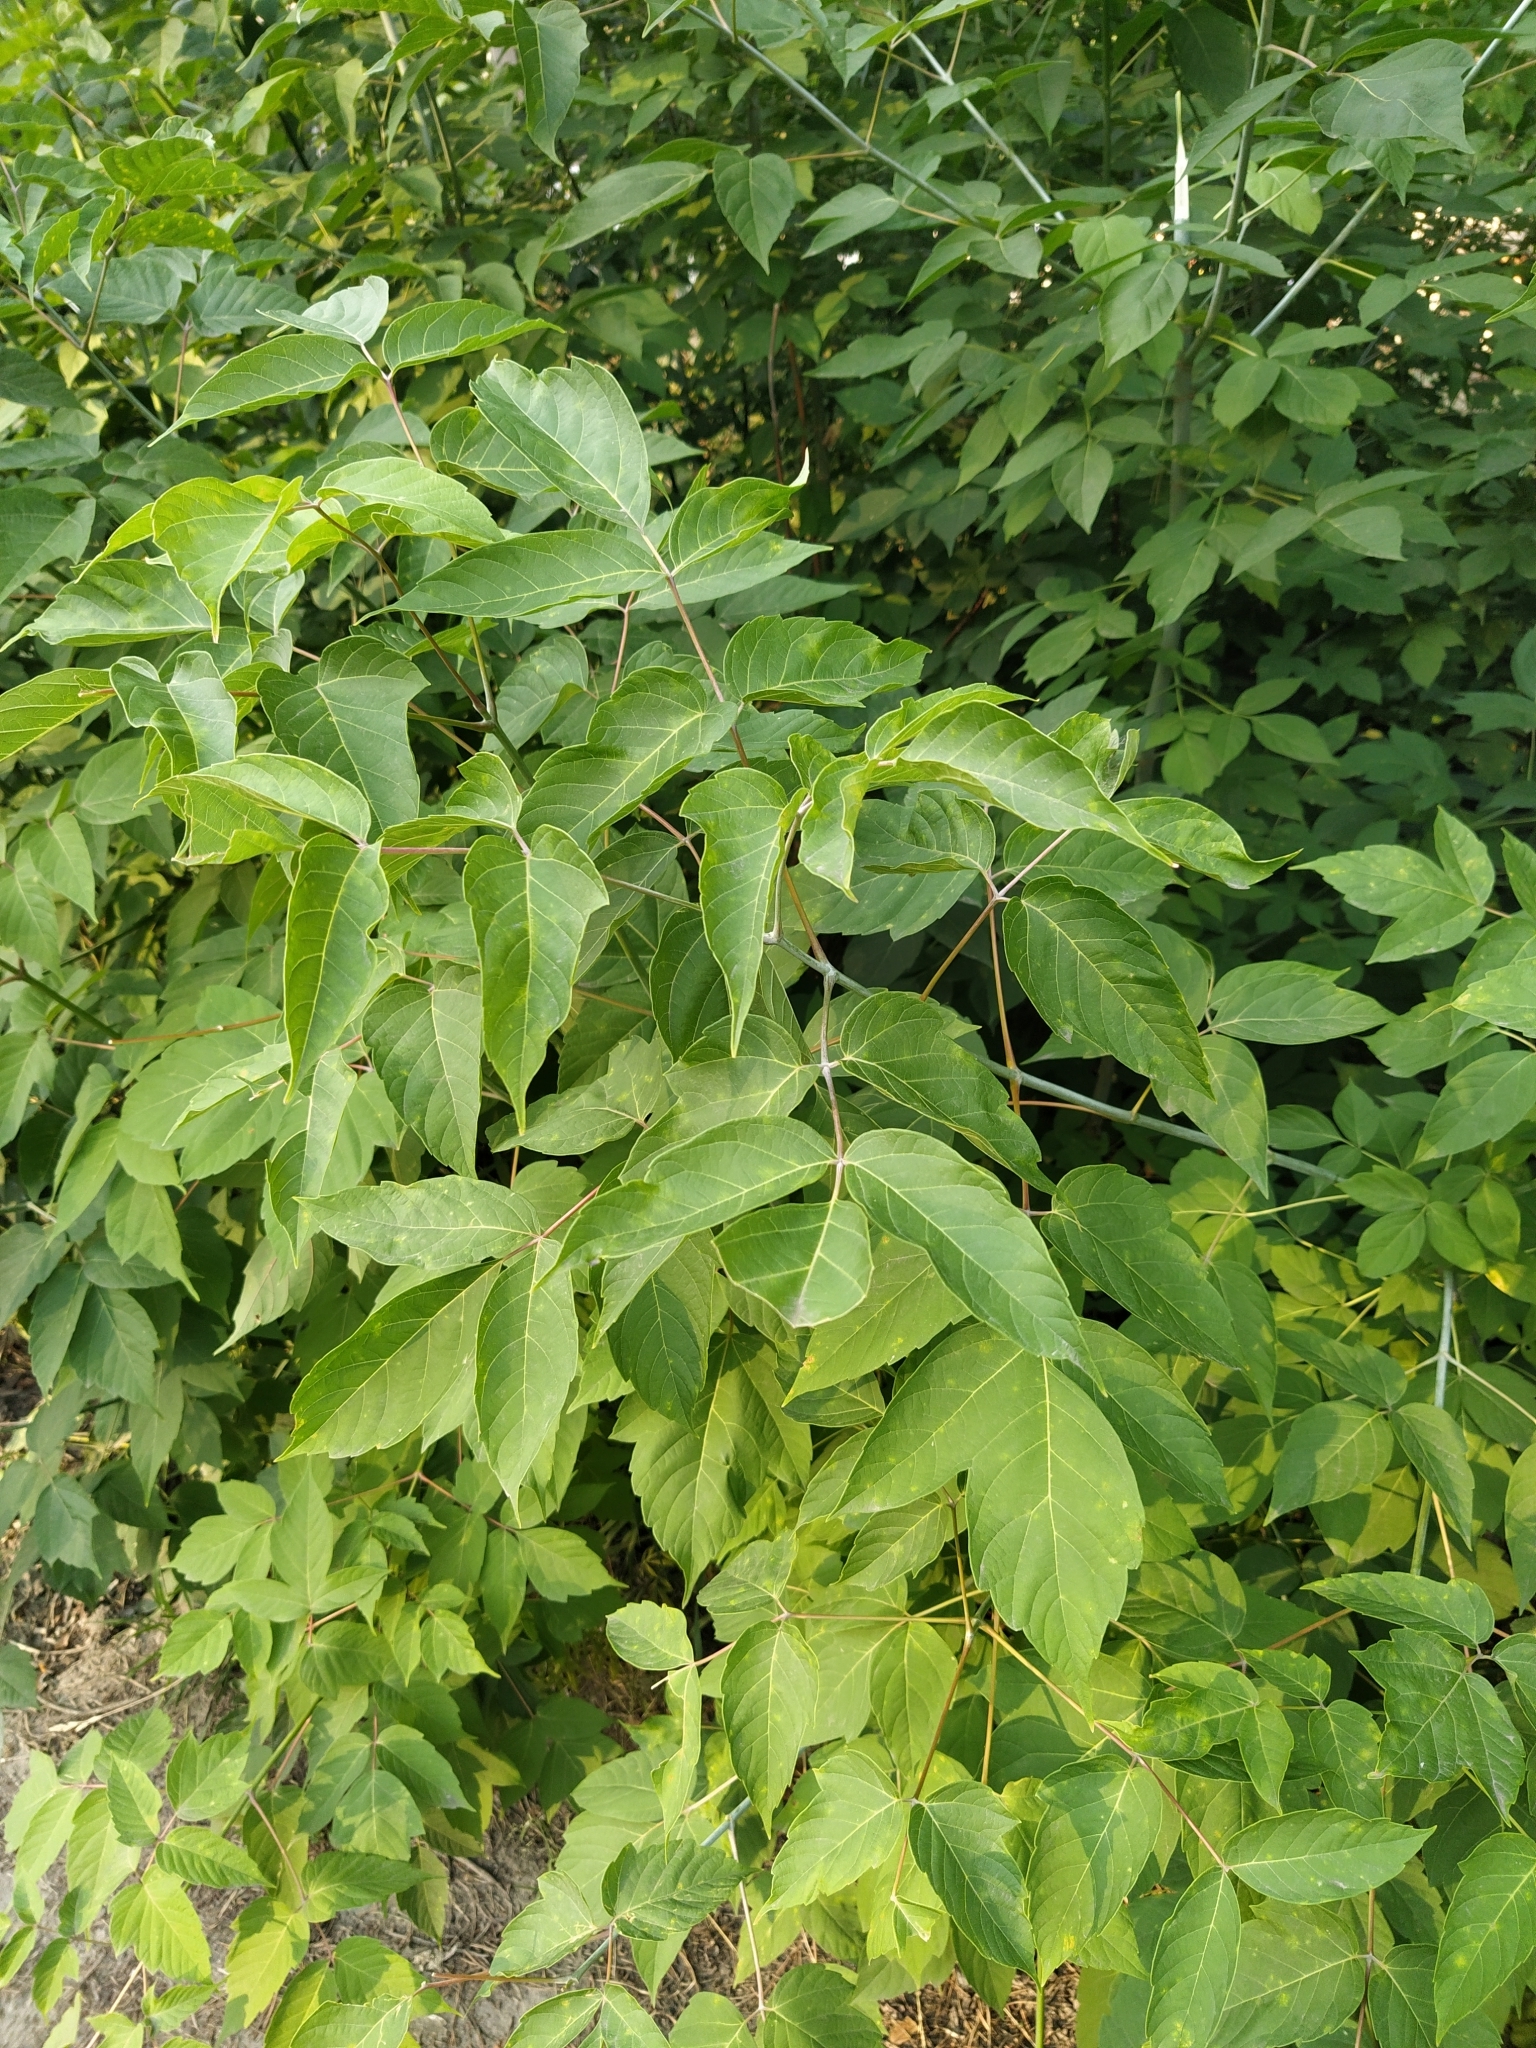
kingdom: Plantae
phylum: Tracheophyta
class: Magnoliopsida
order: Sapindales
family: Sapindaceae
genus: Acer
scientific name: Acer negundo
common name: Ashleaf maple
